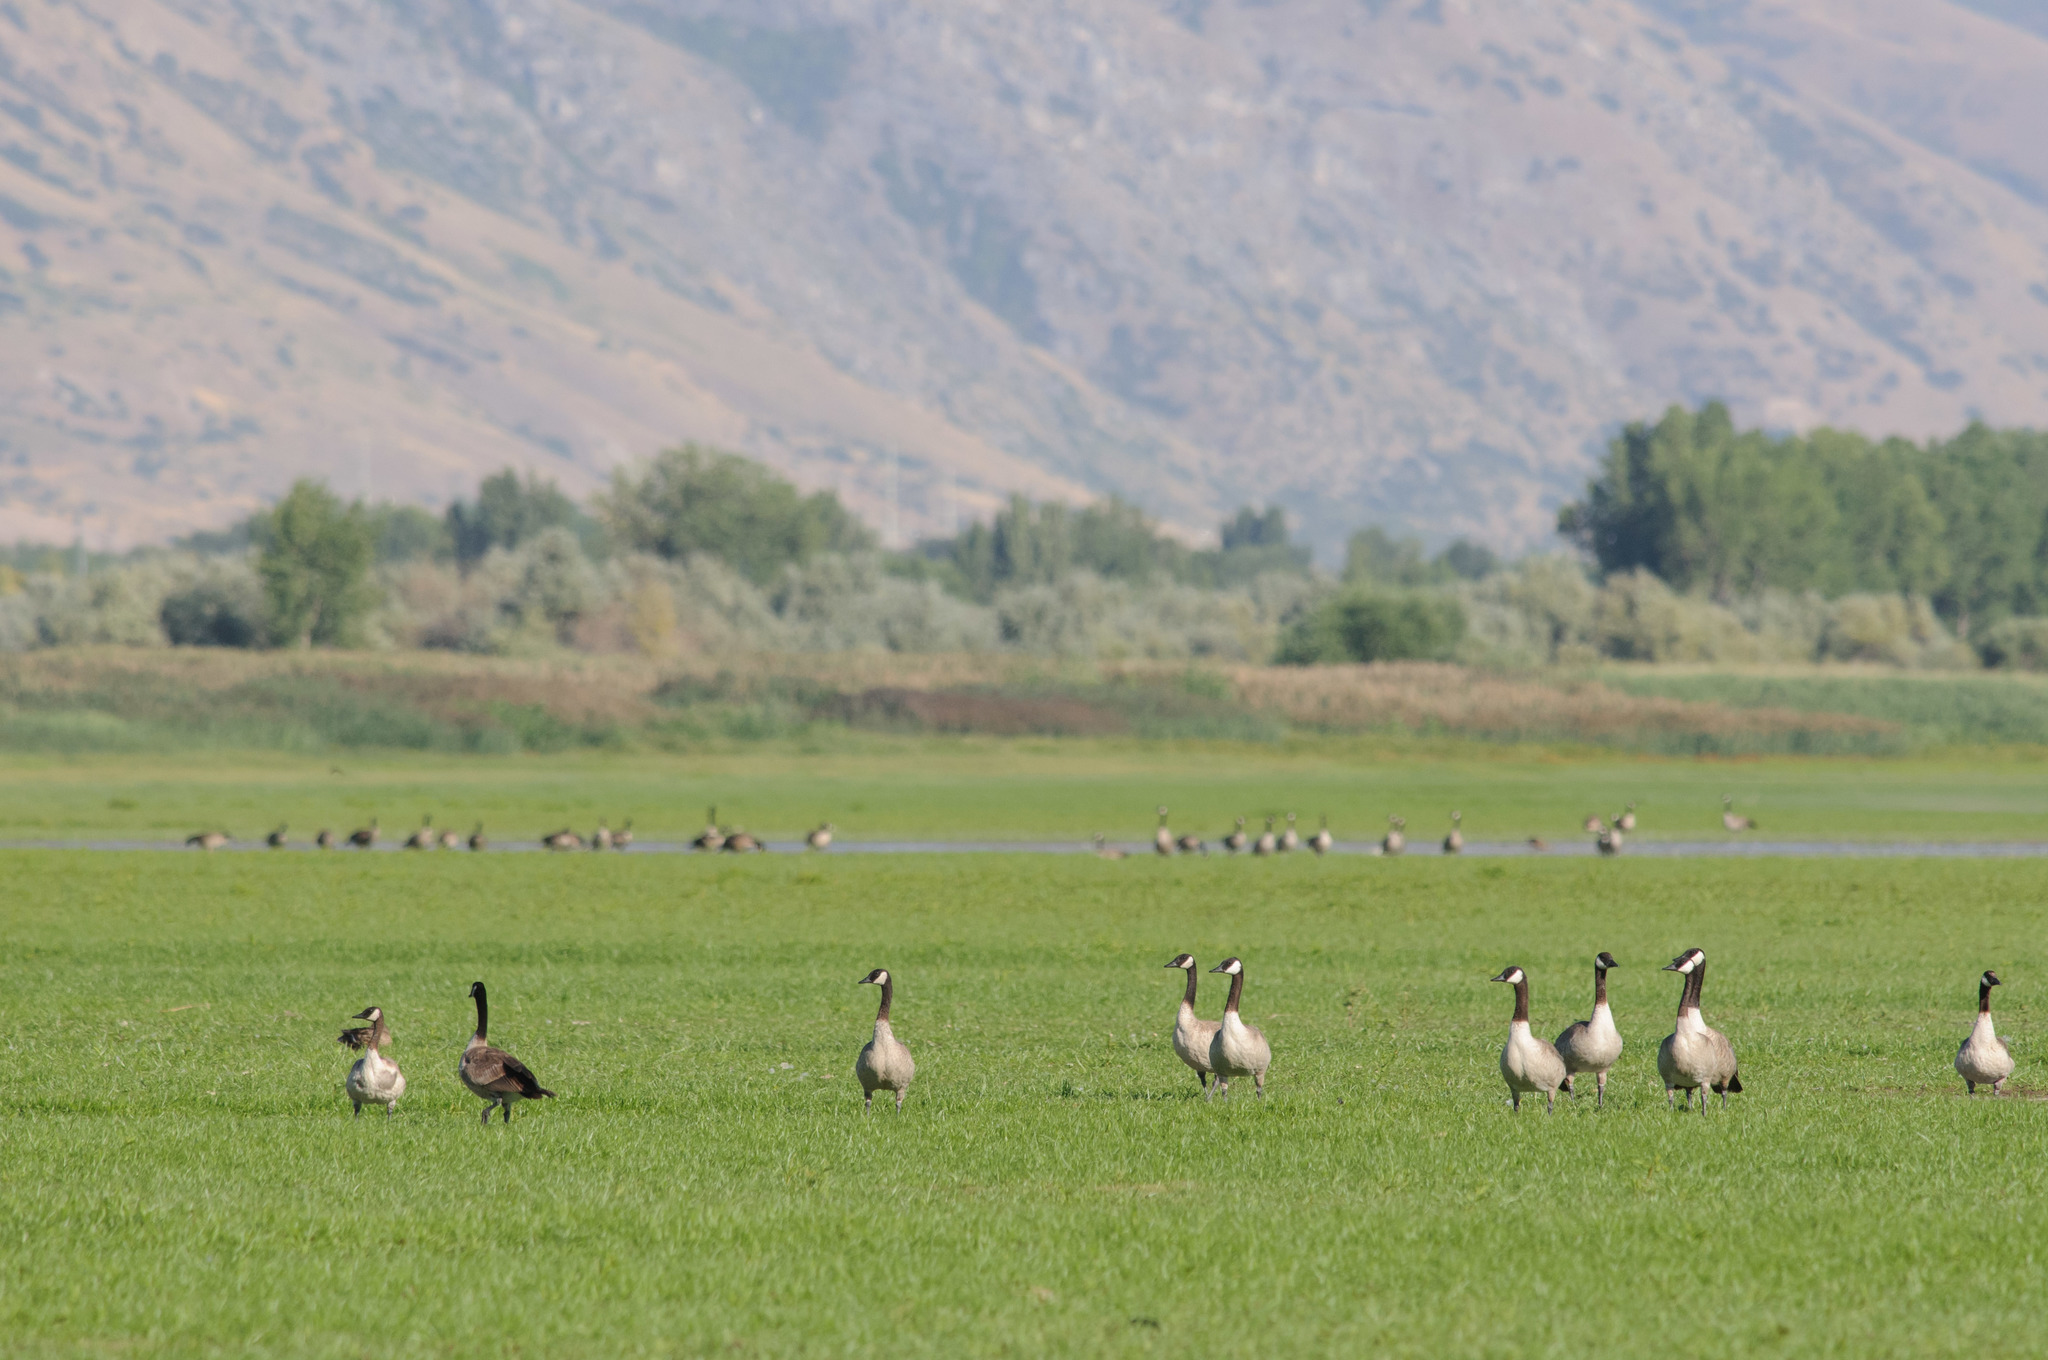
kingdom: Animalia
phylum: Chordata
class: Aves
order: Anseriformes
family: Anatidae
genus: Branta
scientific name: Branta canadensis
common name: Canada goose
